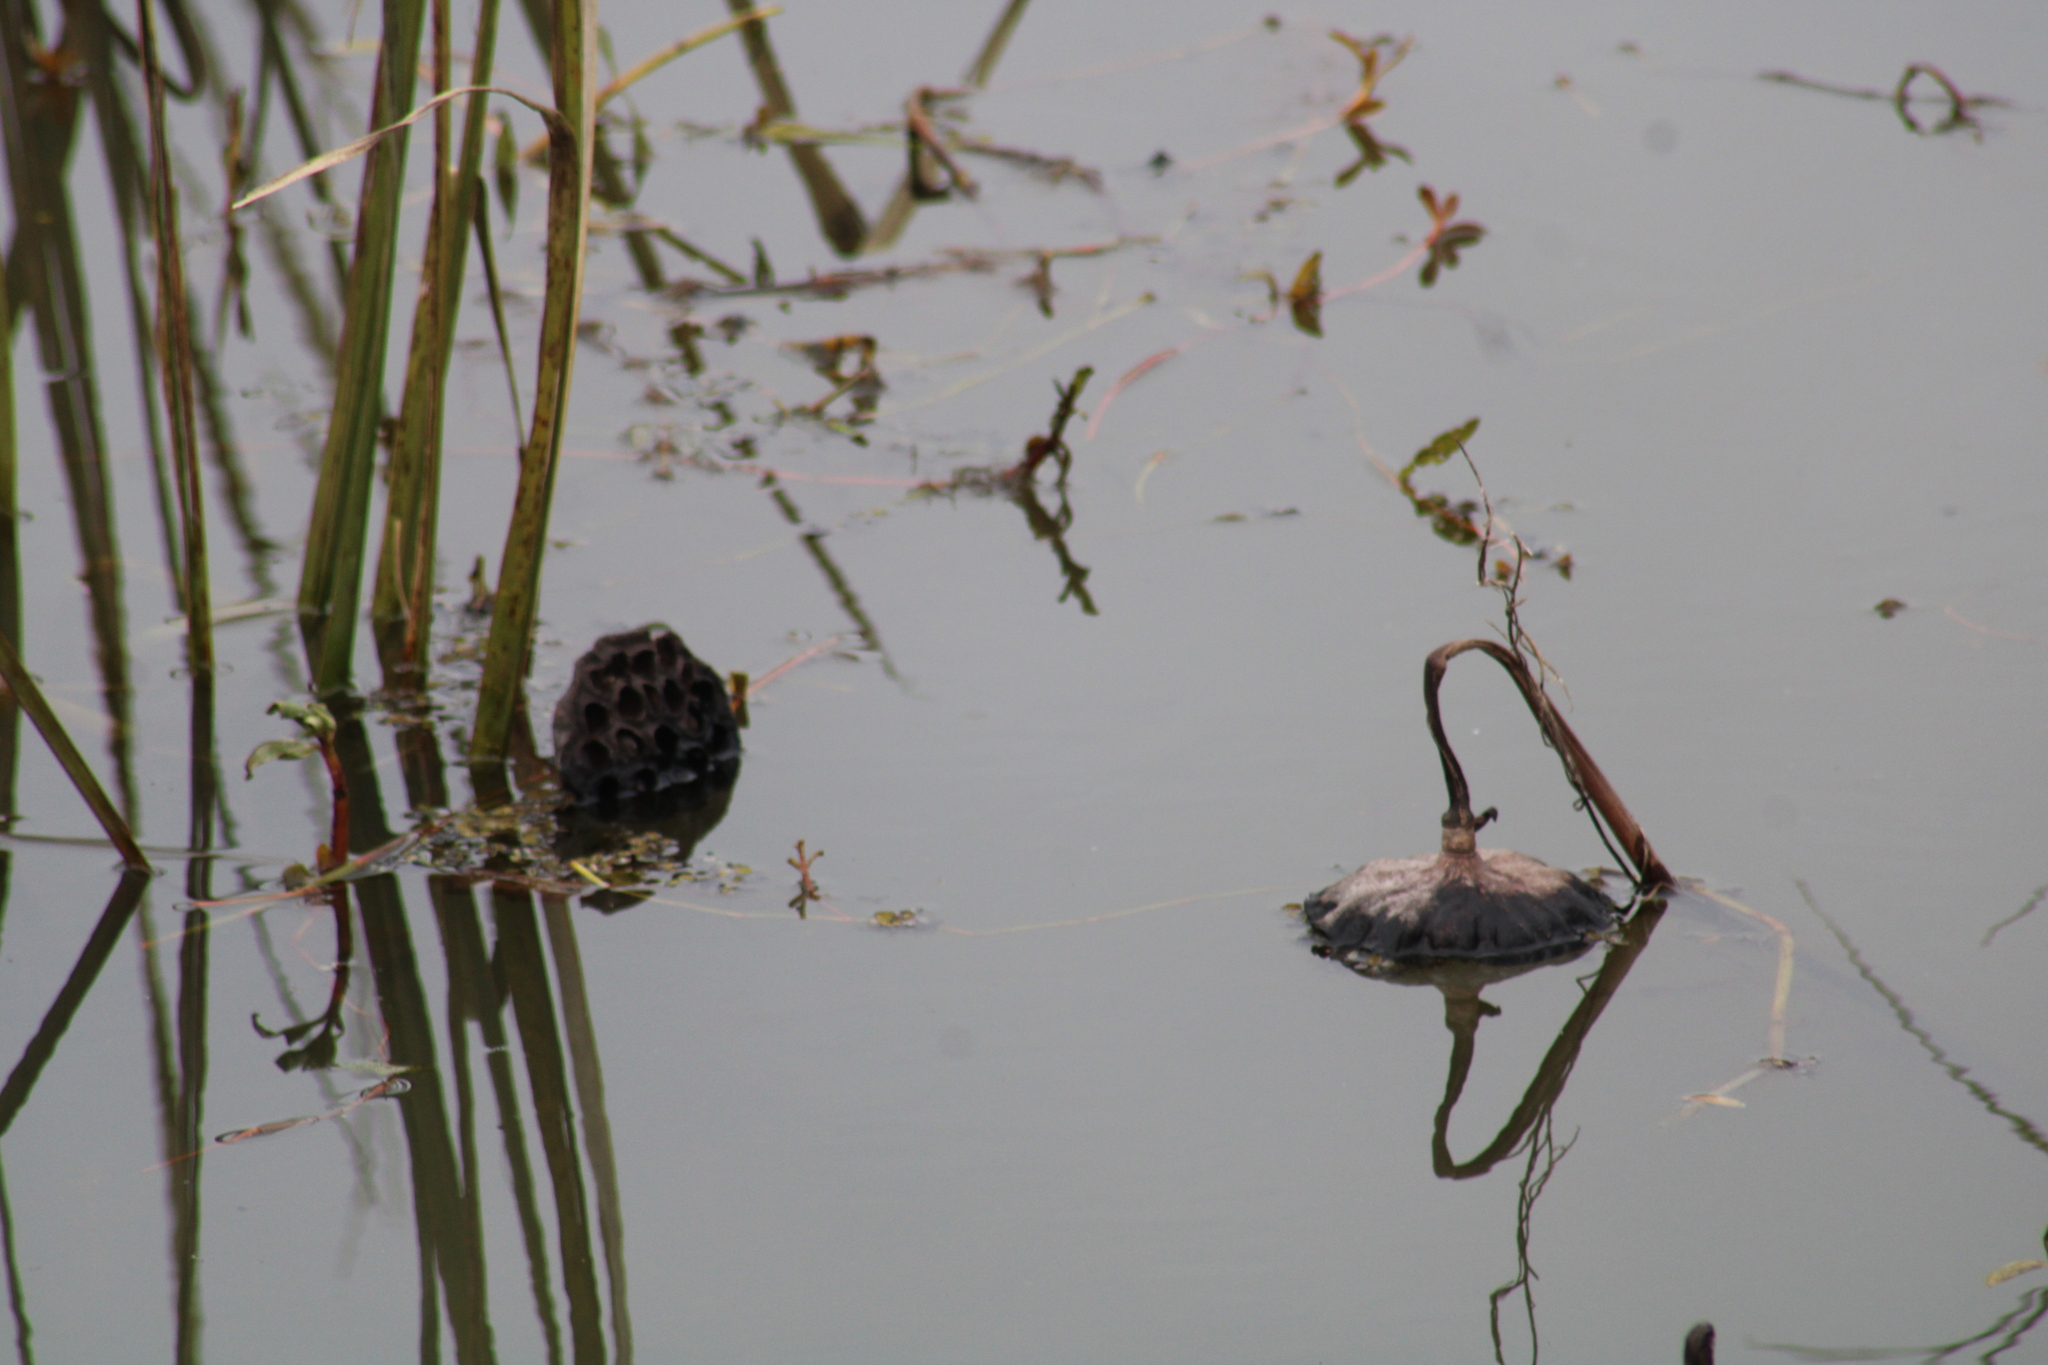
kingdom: Plantae
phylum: Tracheophyta
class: Magnoliopsida
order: Proteales
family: Nelumbonaceae
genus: Nelumbo
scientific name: Nelumbo lutea
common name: American lotus
